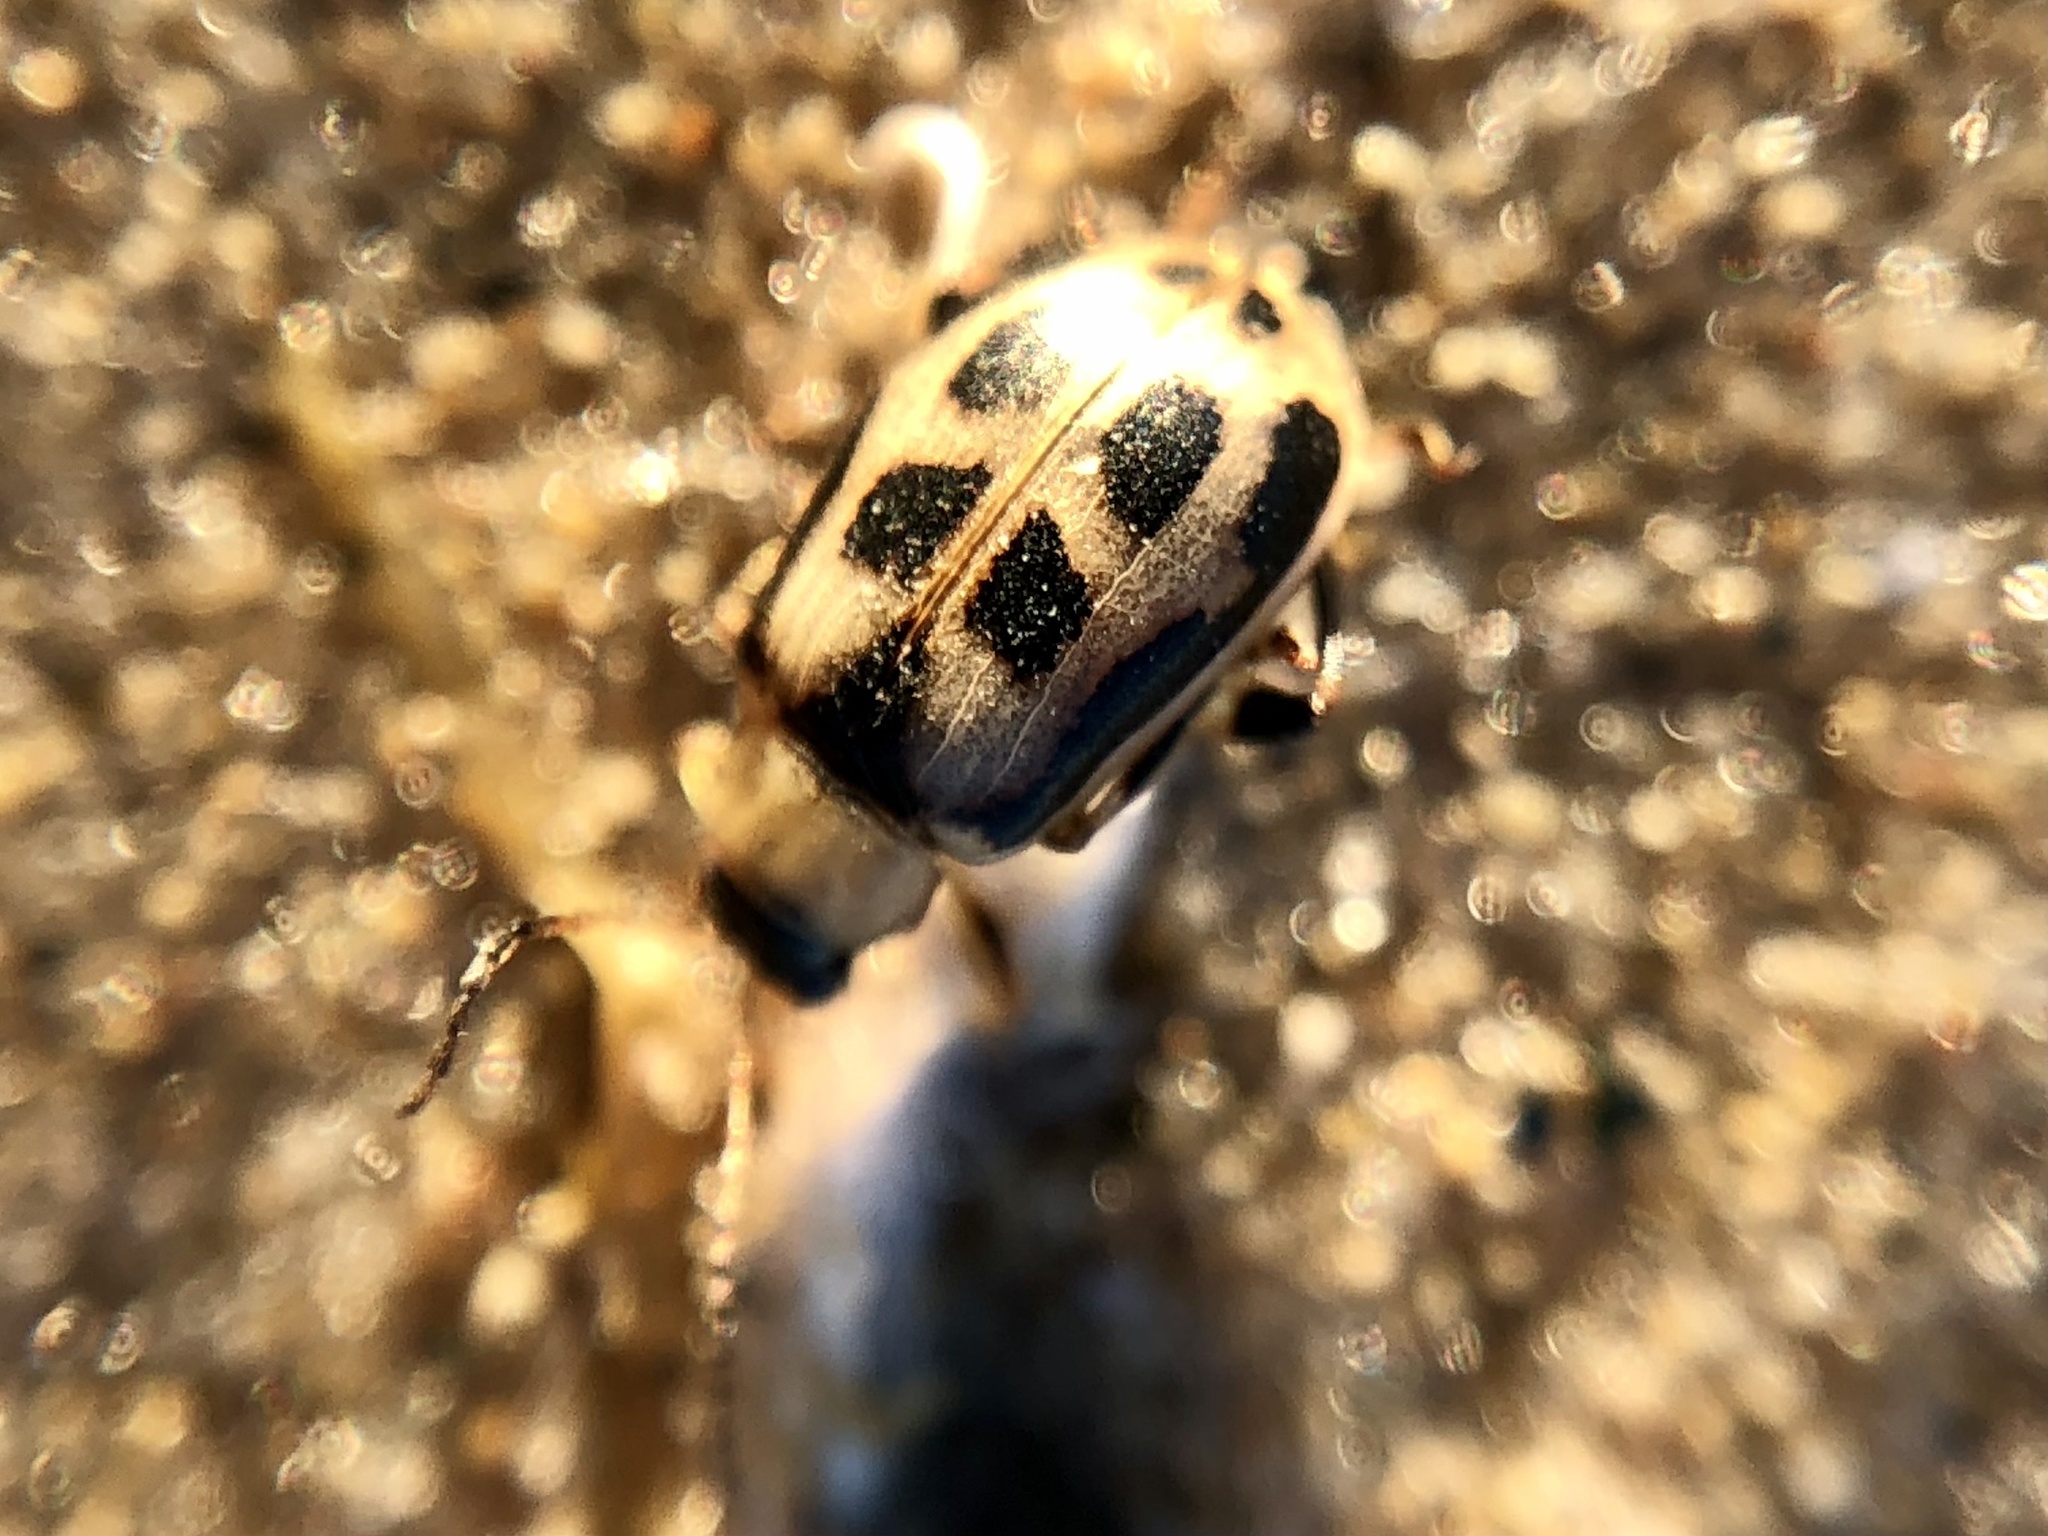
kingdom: Animalia
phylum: Arthropoda
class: Insecta
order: Coleoptera
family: Chrysomelidae
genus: Cerotoma
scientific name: Cerotoma trifurcata
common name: Bean leaf beetle
